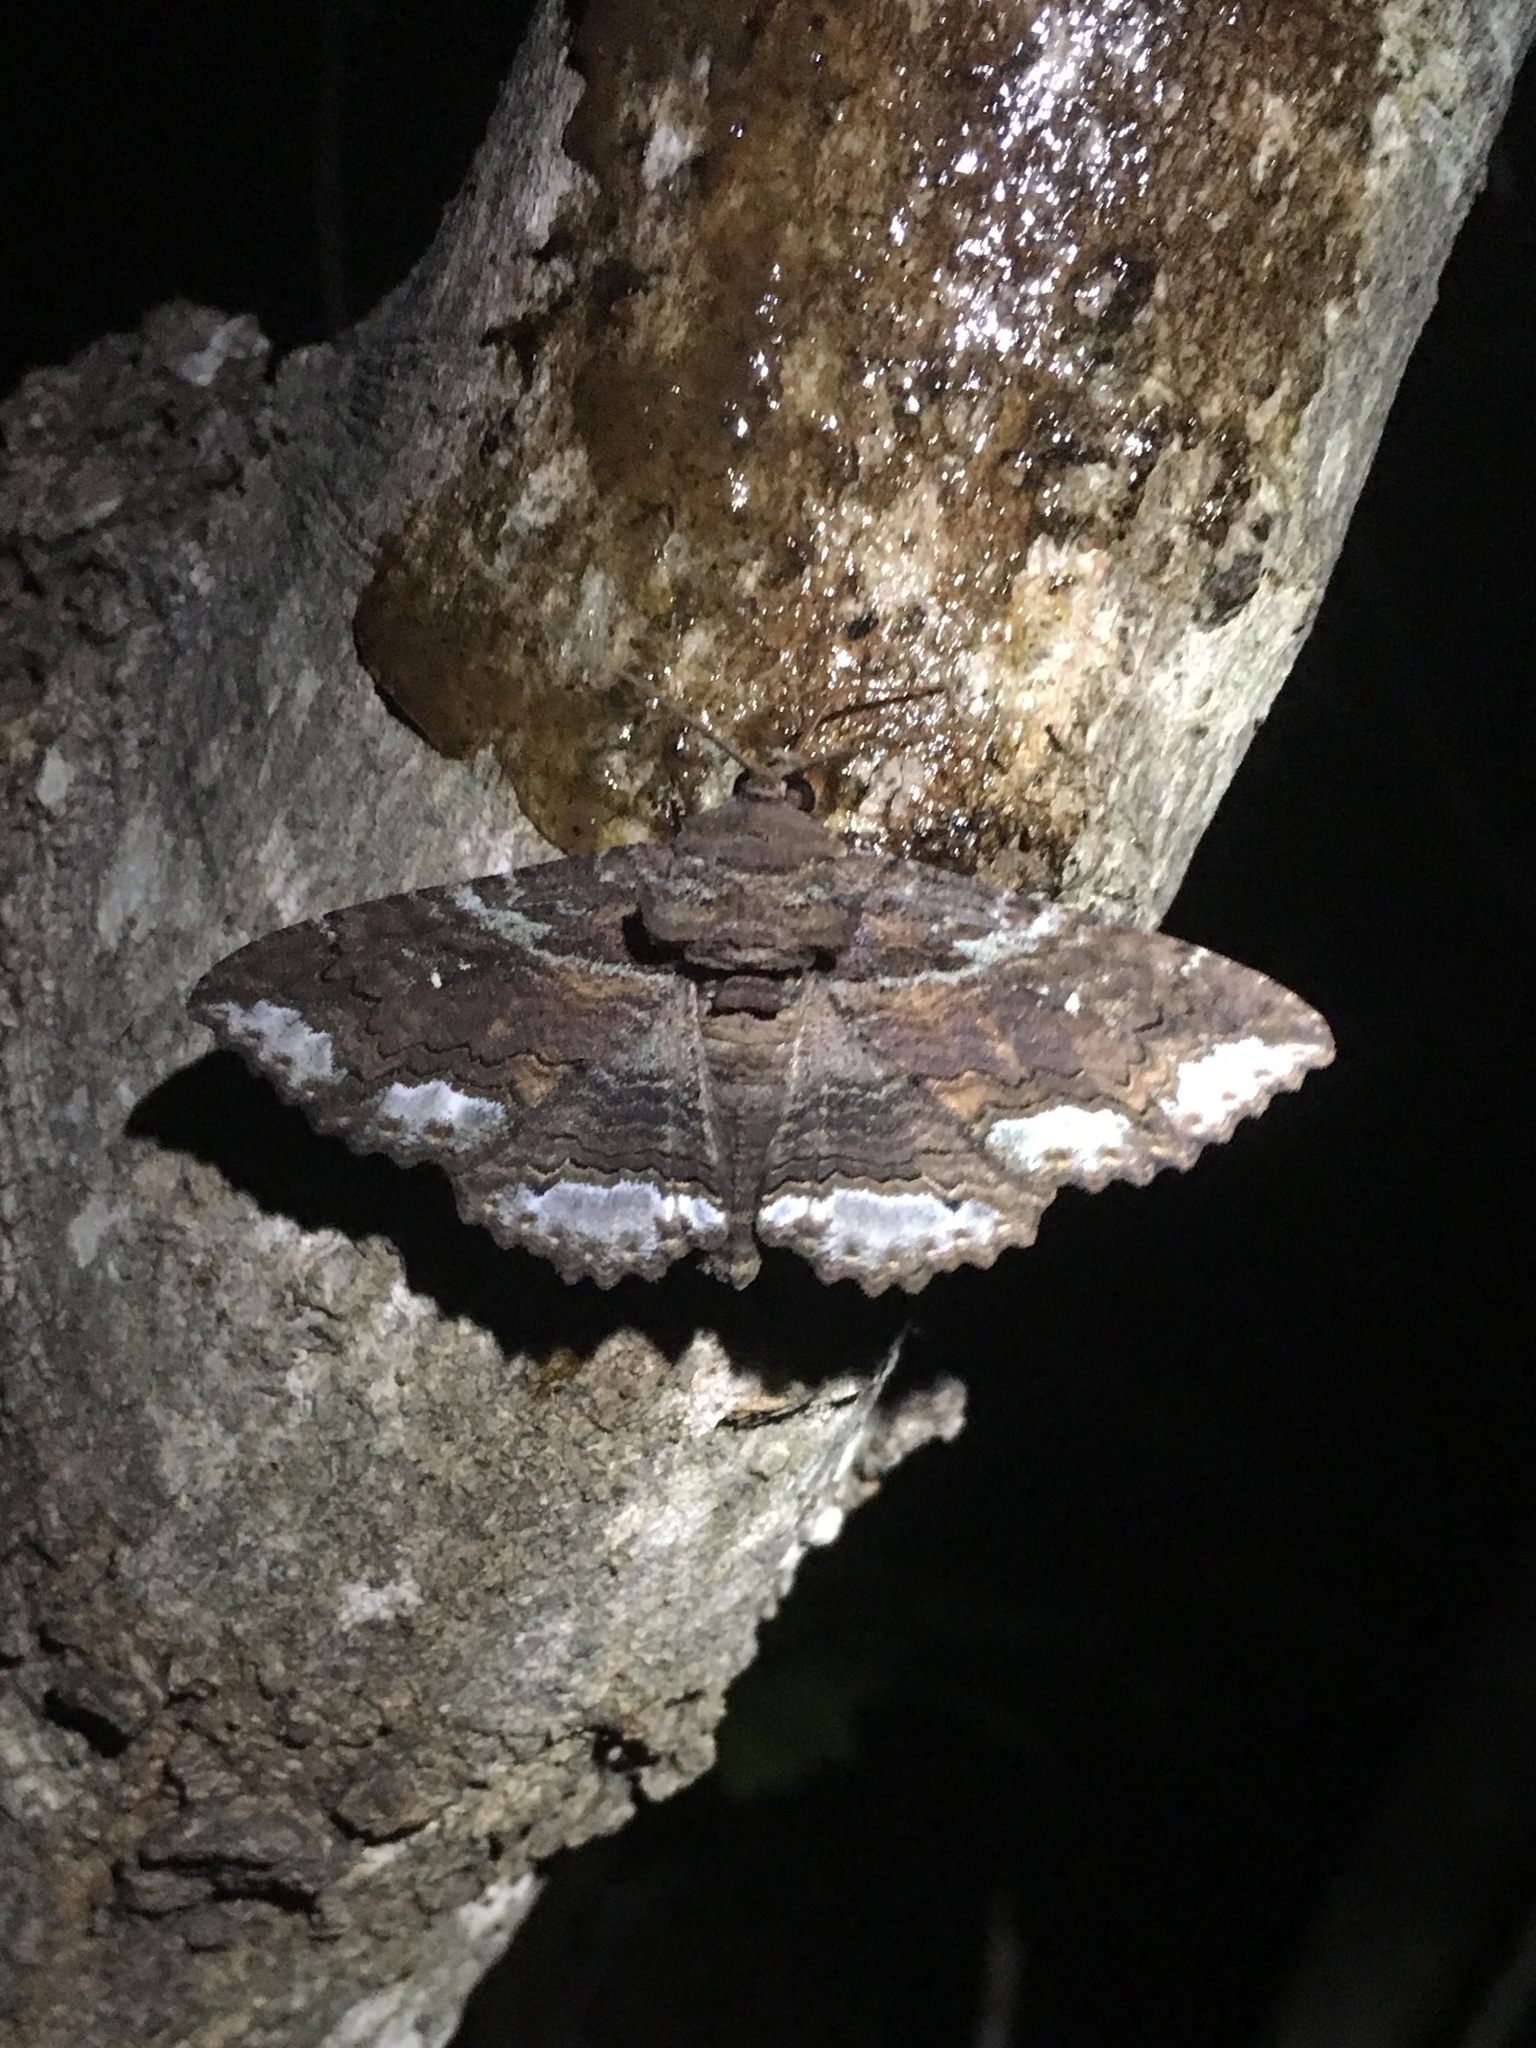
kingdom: Animalia
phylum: Arthropoda
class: Insecta
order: Lepidoptera
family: Erebidae
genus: Zale
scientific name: Zale lunata
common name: Lunate zale moth
